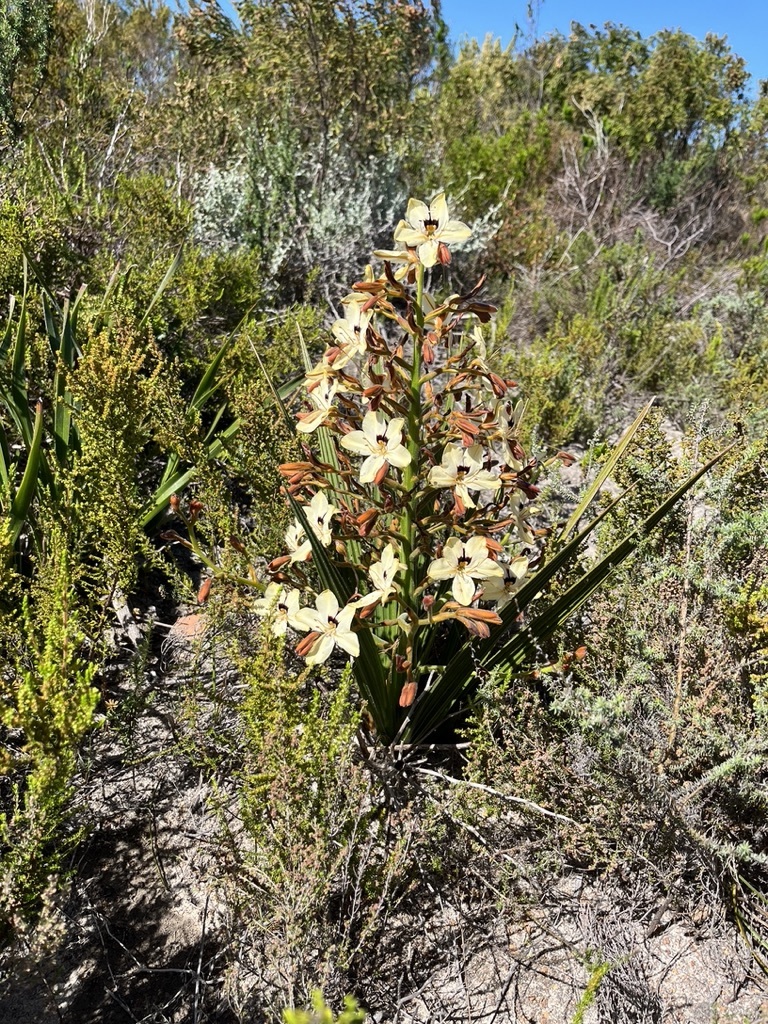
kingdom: Plantae
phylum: Tracheophyta
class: Liliopsida
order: Commelinales
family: Haemodoraceae
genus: Wachendorfia
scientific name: Wachendorfia paniculata
